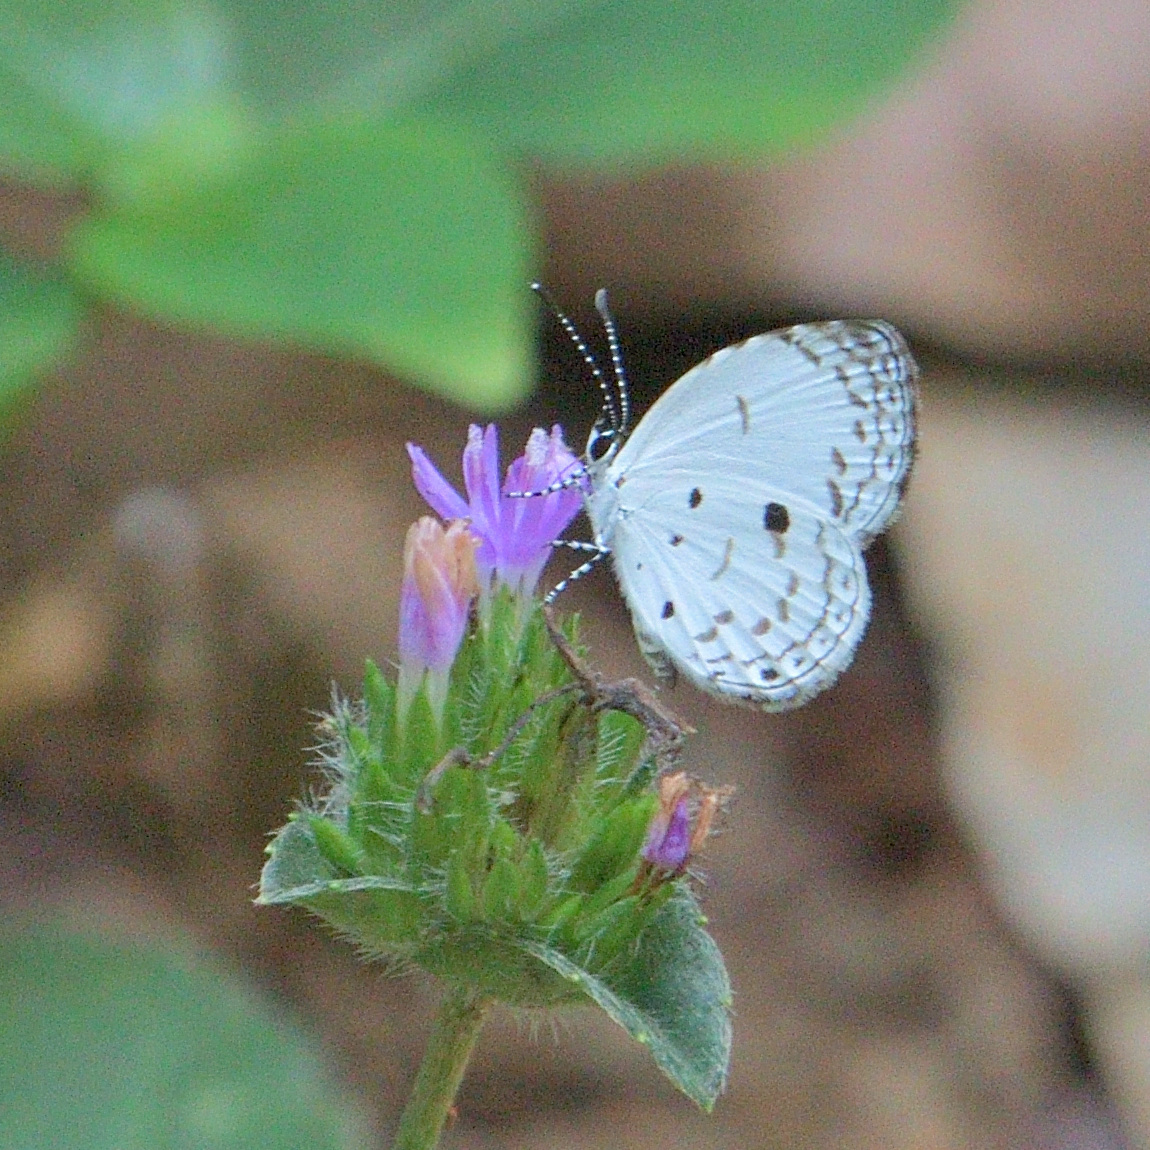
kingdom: Animalia
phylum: Arthropoda
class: Insecta
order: Lepidoptera
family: Lycaenidae
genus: Neopithecops
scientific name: Neopithecops zalmora
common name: Quaker
